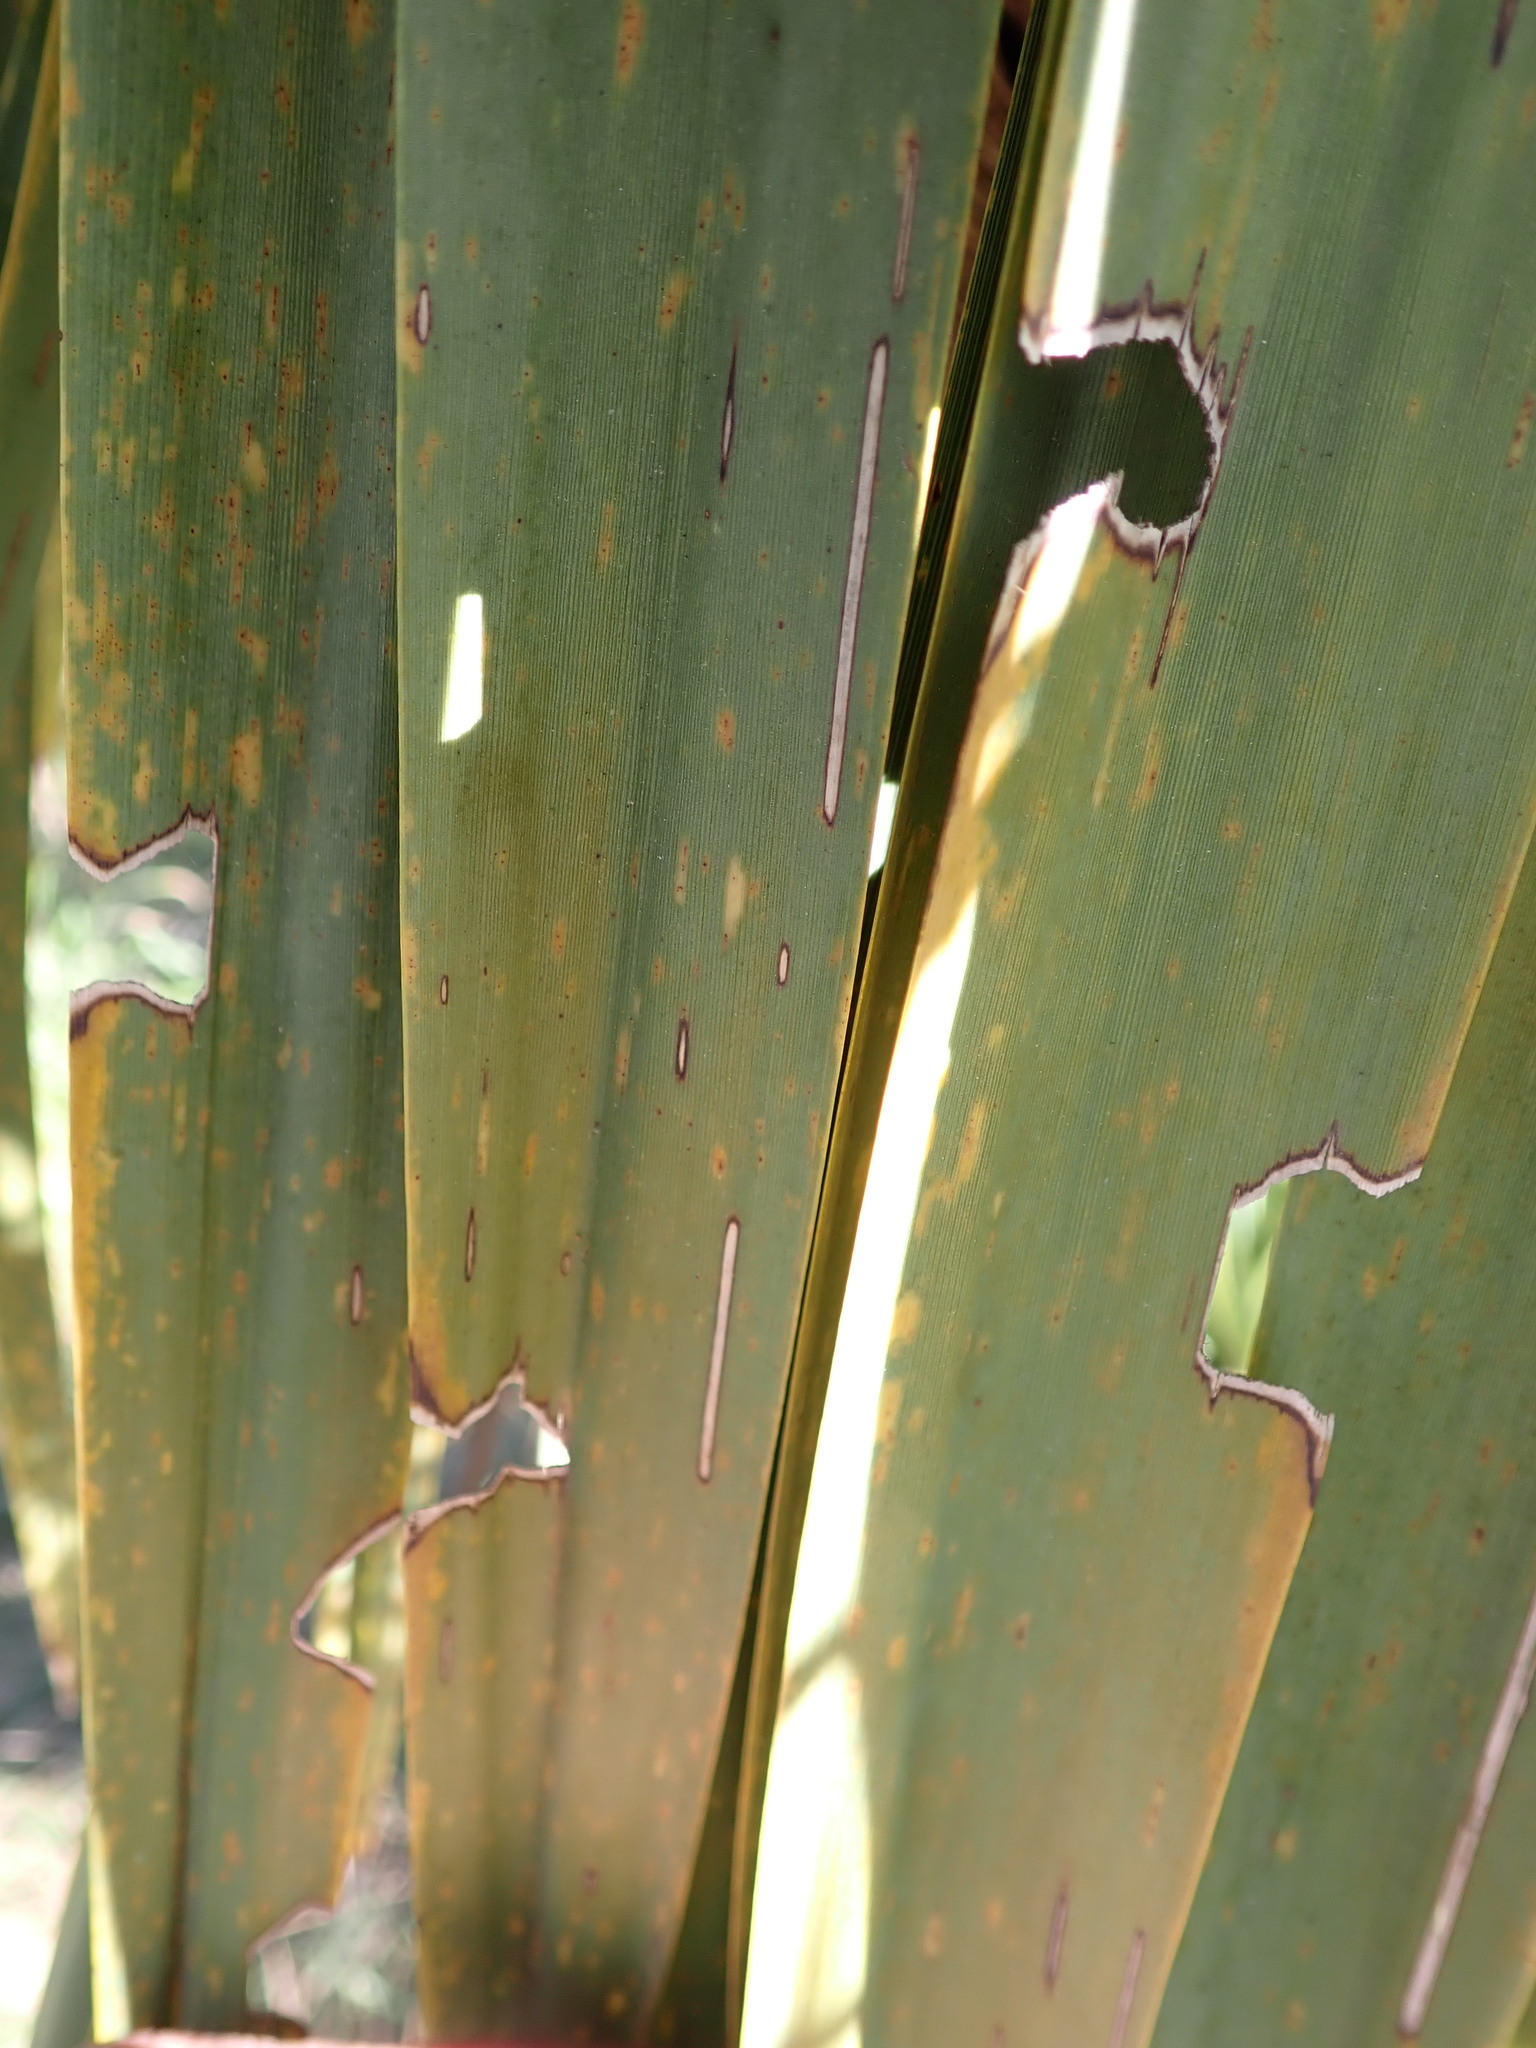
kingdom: Animalia
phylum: Arthropoda
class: Insecta
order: Lepidoptera
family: Geometridae
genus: Epiphryne
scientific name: Epiphryne verriculata
